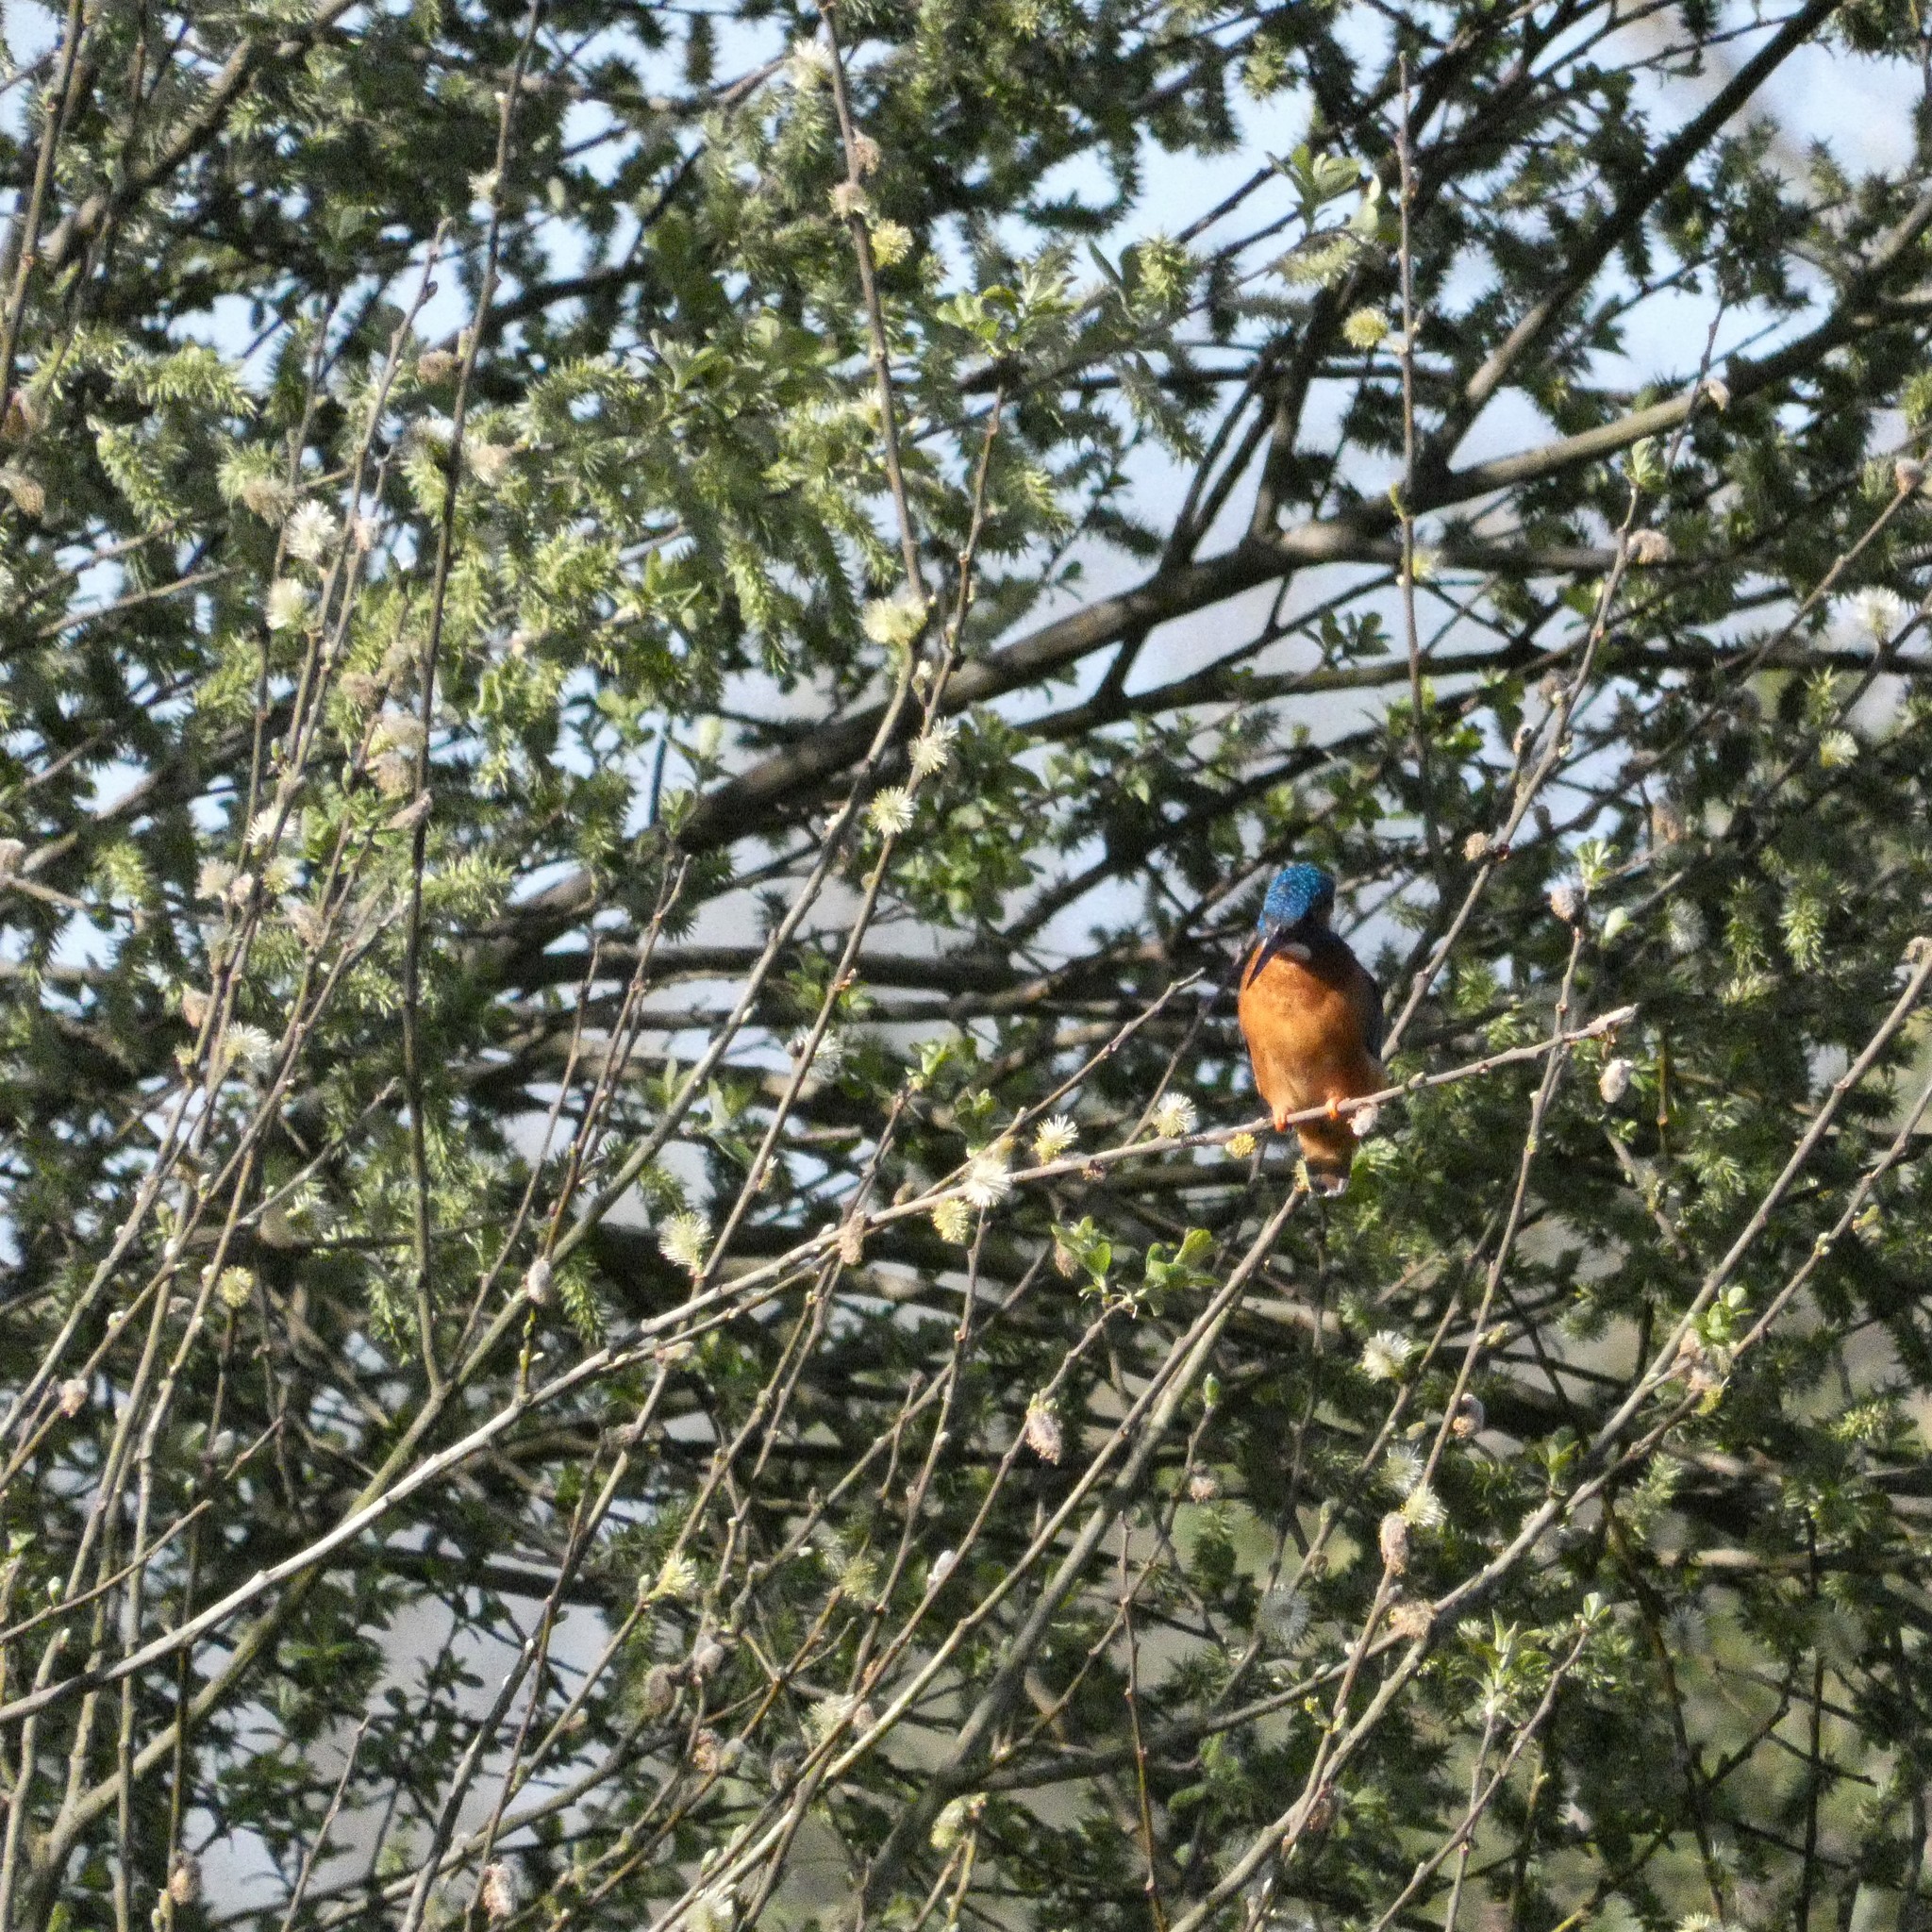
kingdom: Animalia
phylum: Chordata
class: Aves
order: Coraciiformes
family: Alcedinidae
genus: Alcedo
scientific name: Alcedo atthis
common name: Common kingfisher
